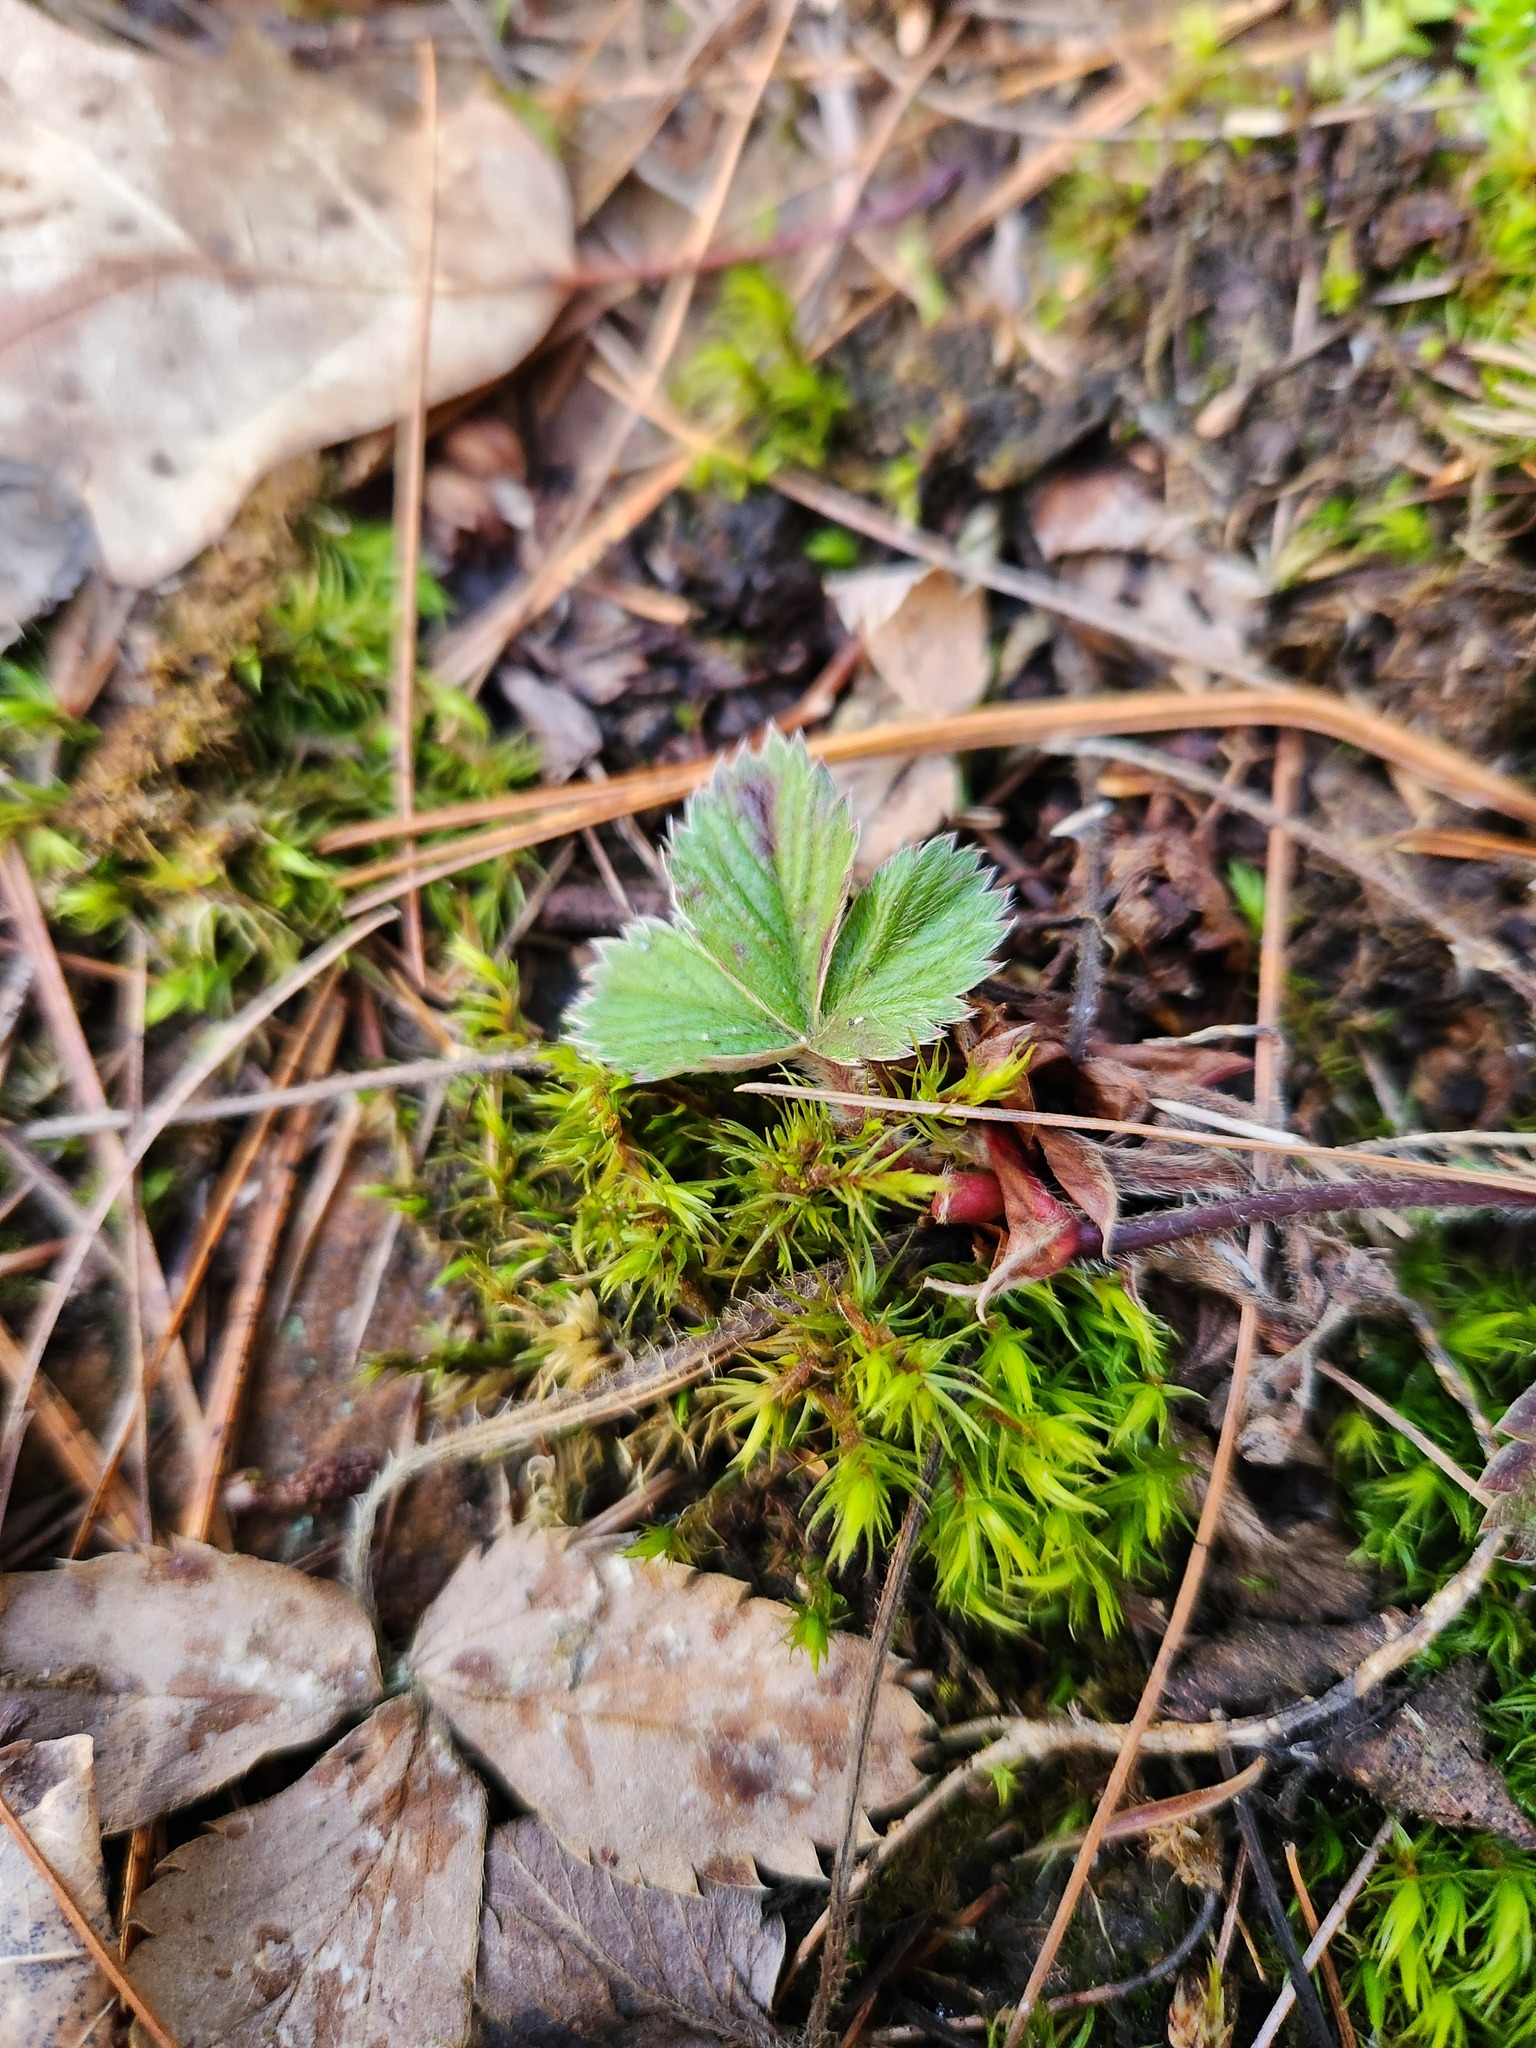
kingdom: Plantae
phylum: Tracheophyta
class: Magnoliopsida
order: Rosales
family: Rosaceae
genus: Fragaria
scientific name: Fragaria virginiana
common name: Thickleaved wild strawberry
